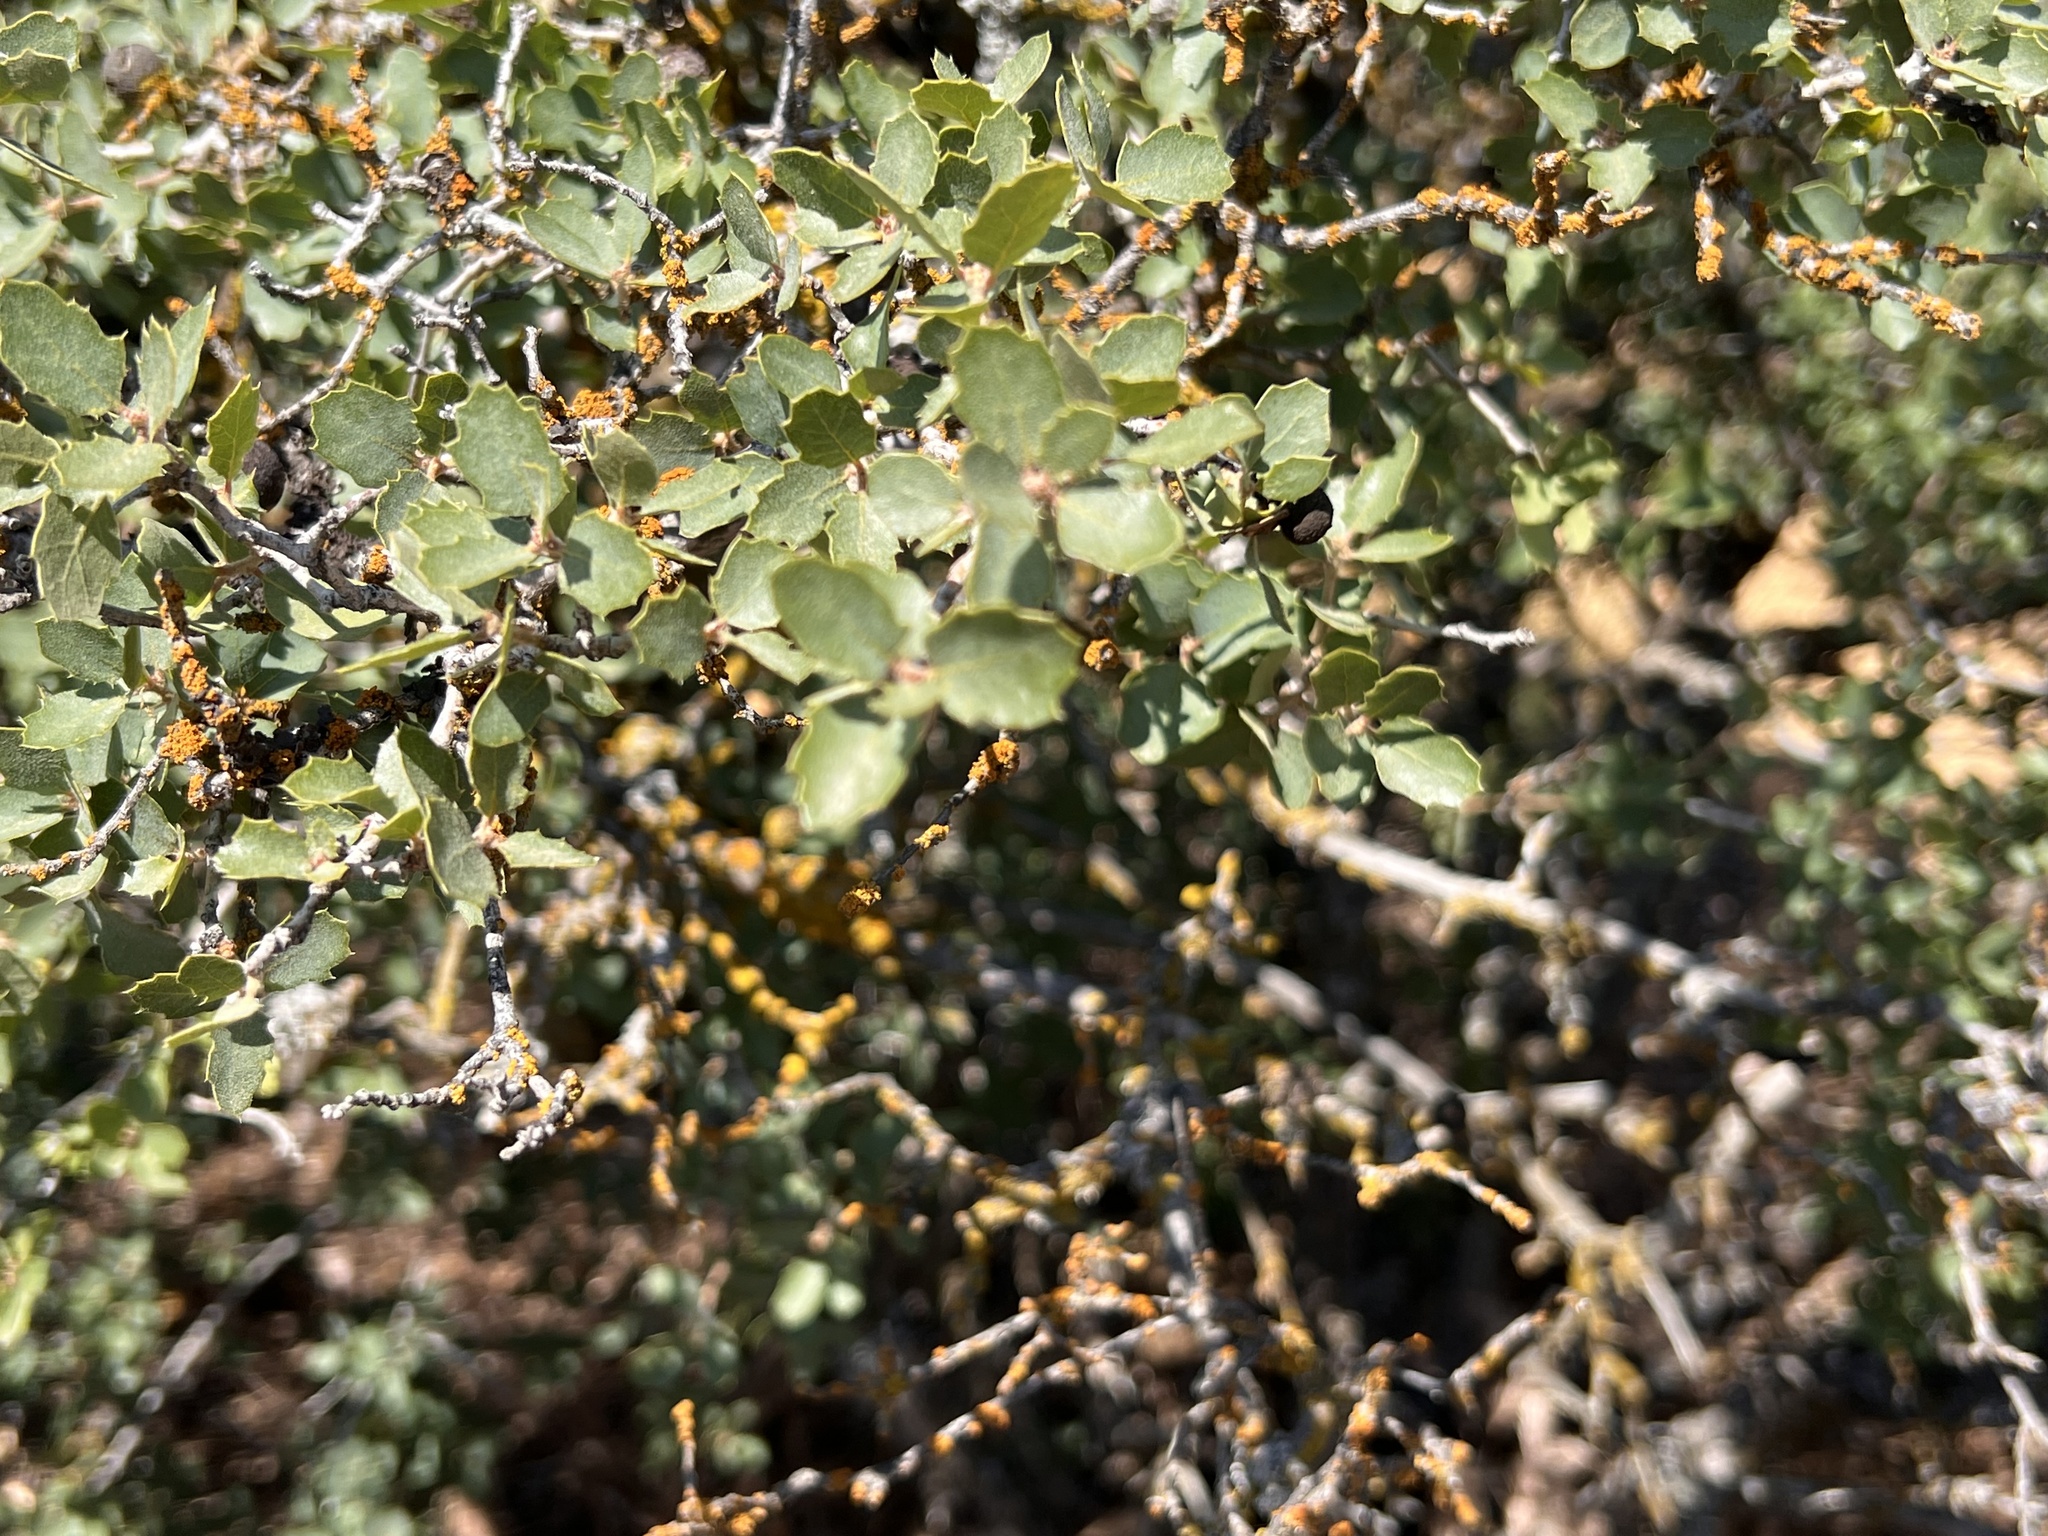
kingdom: Plantae
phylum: Tracheophyta
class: Magnoliopsida
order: Fagales
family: Fagaceae
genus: Quercus
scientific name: Quercus john-tuckeri
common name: Tucker's oak
